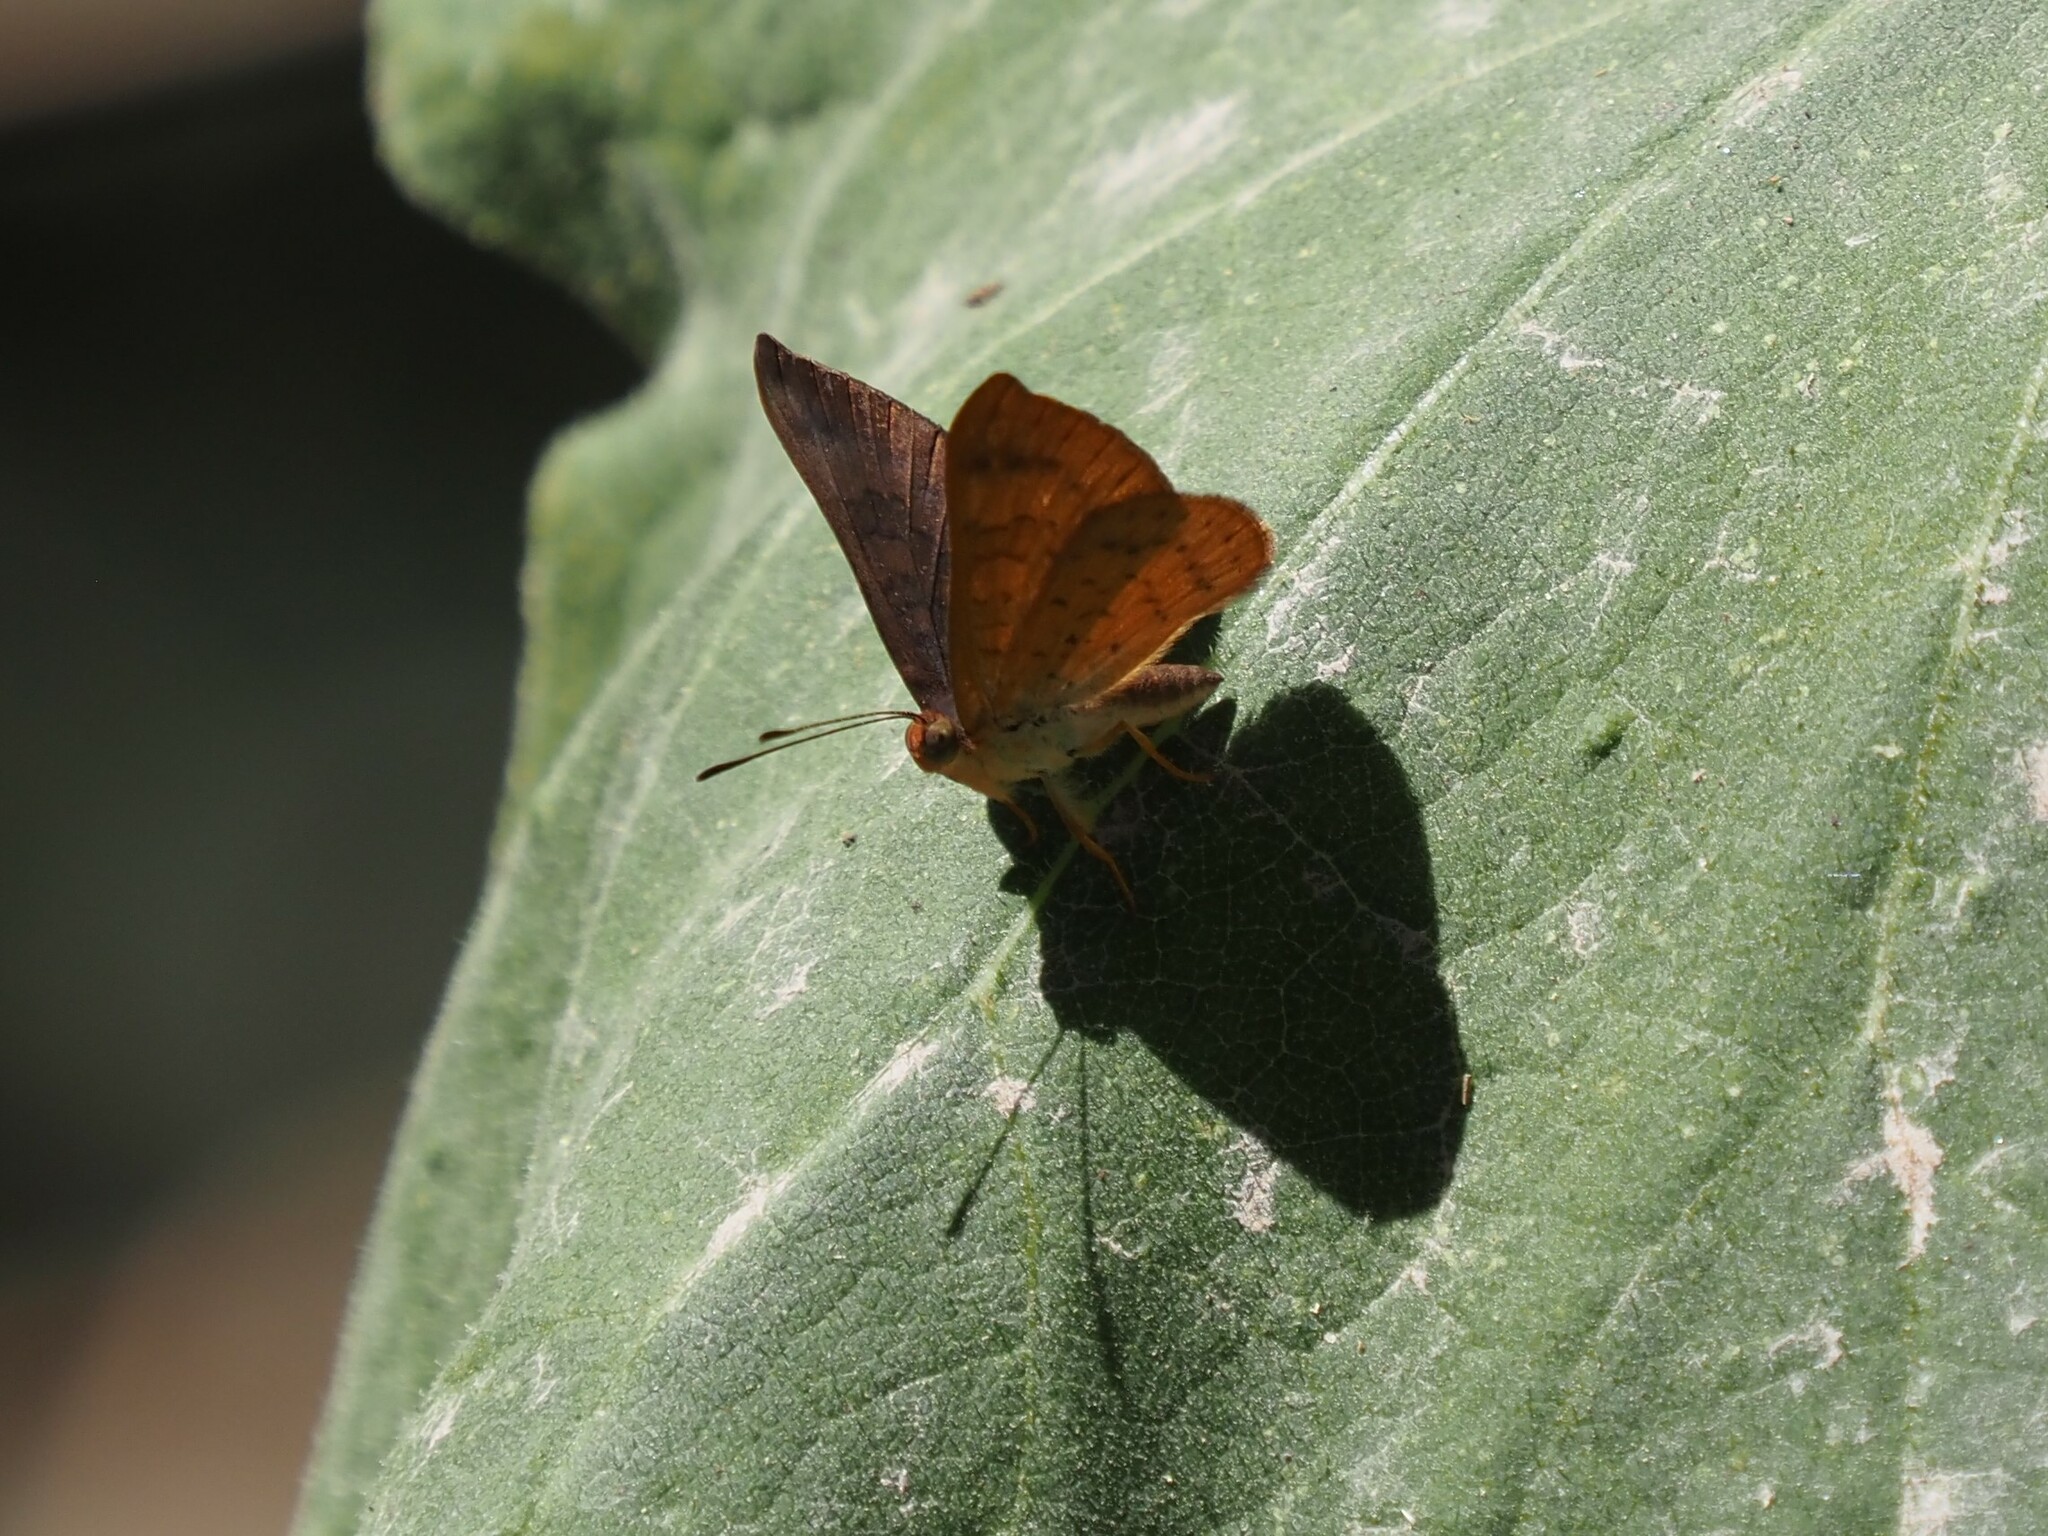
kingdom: Animalia
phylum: Arthropoda
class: Insecta
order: Lepidoptera
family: Lycaenidae
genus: Emesis
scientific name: Emesis tenedia
